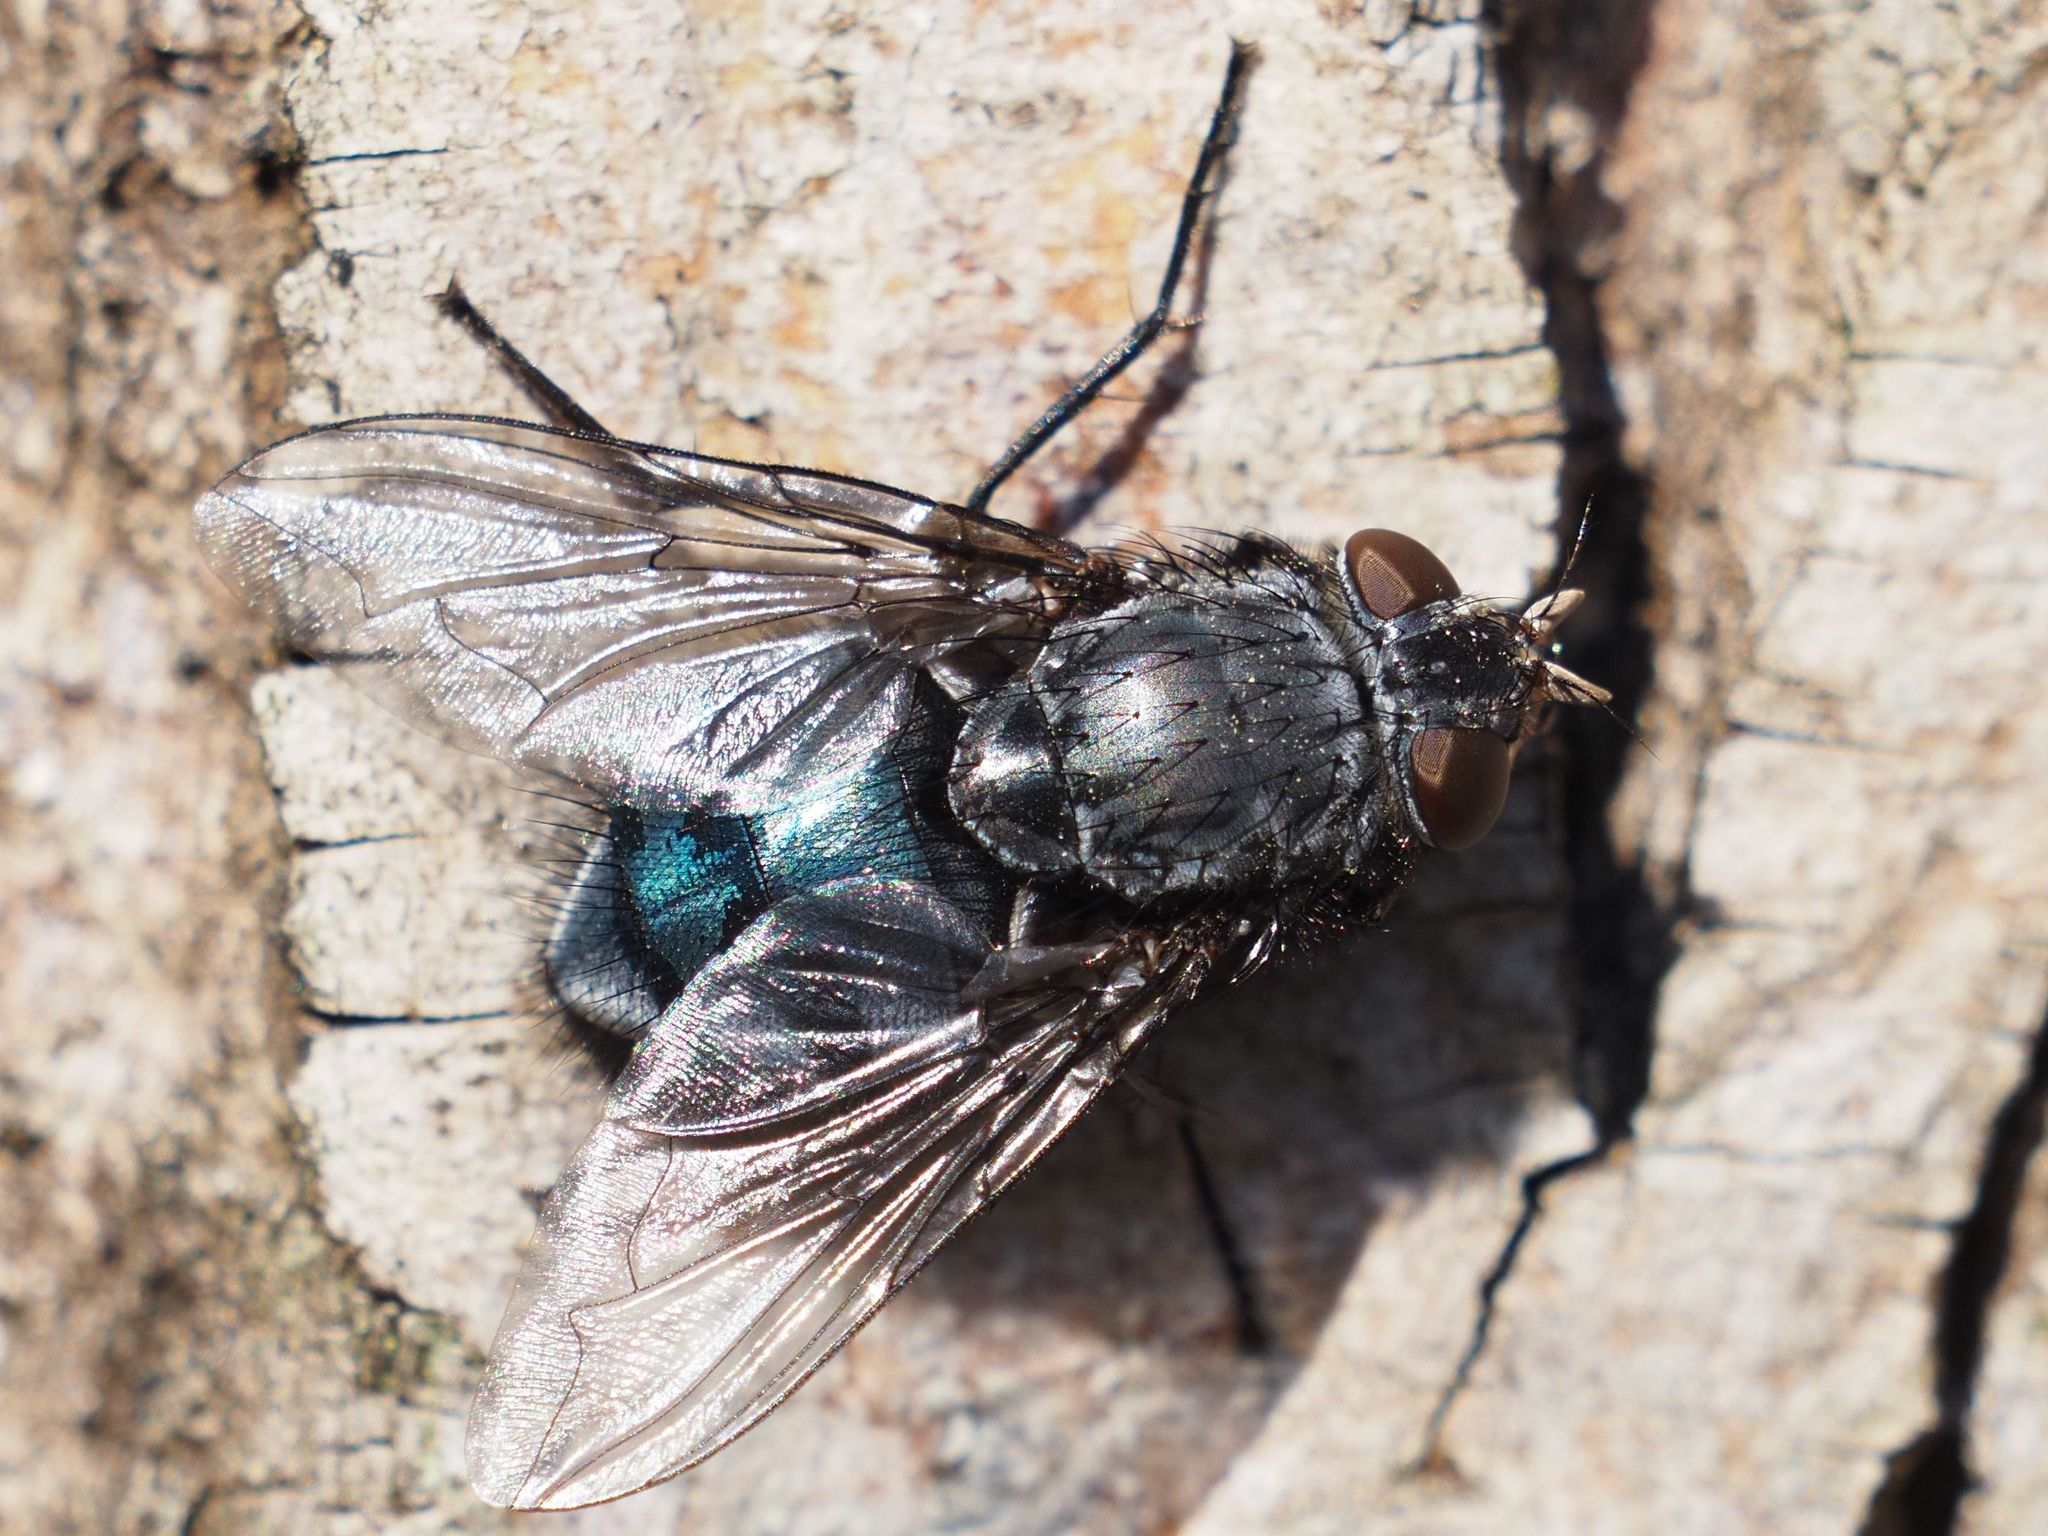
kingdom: Animalia
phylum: Arthropoda
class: Insecta
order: Diptera
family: Calliphoridae
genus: Calliphora
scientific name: Calliphora vicina
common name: Common blow flie
